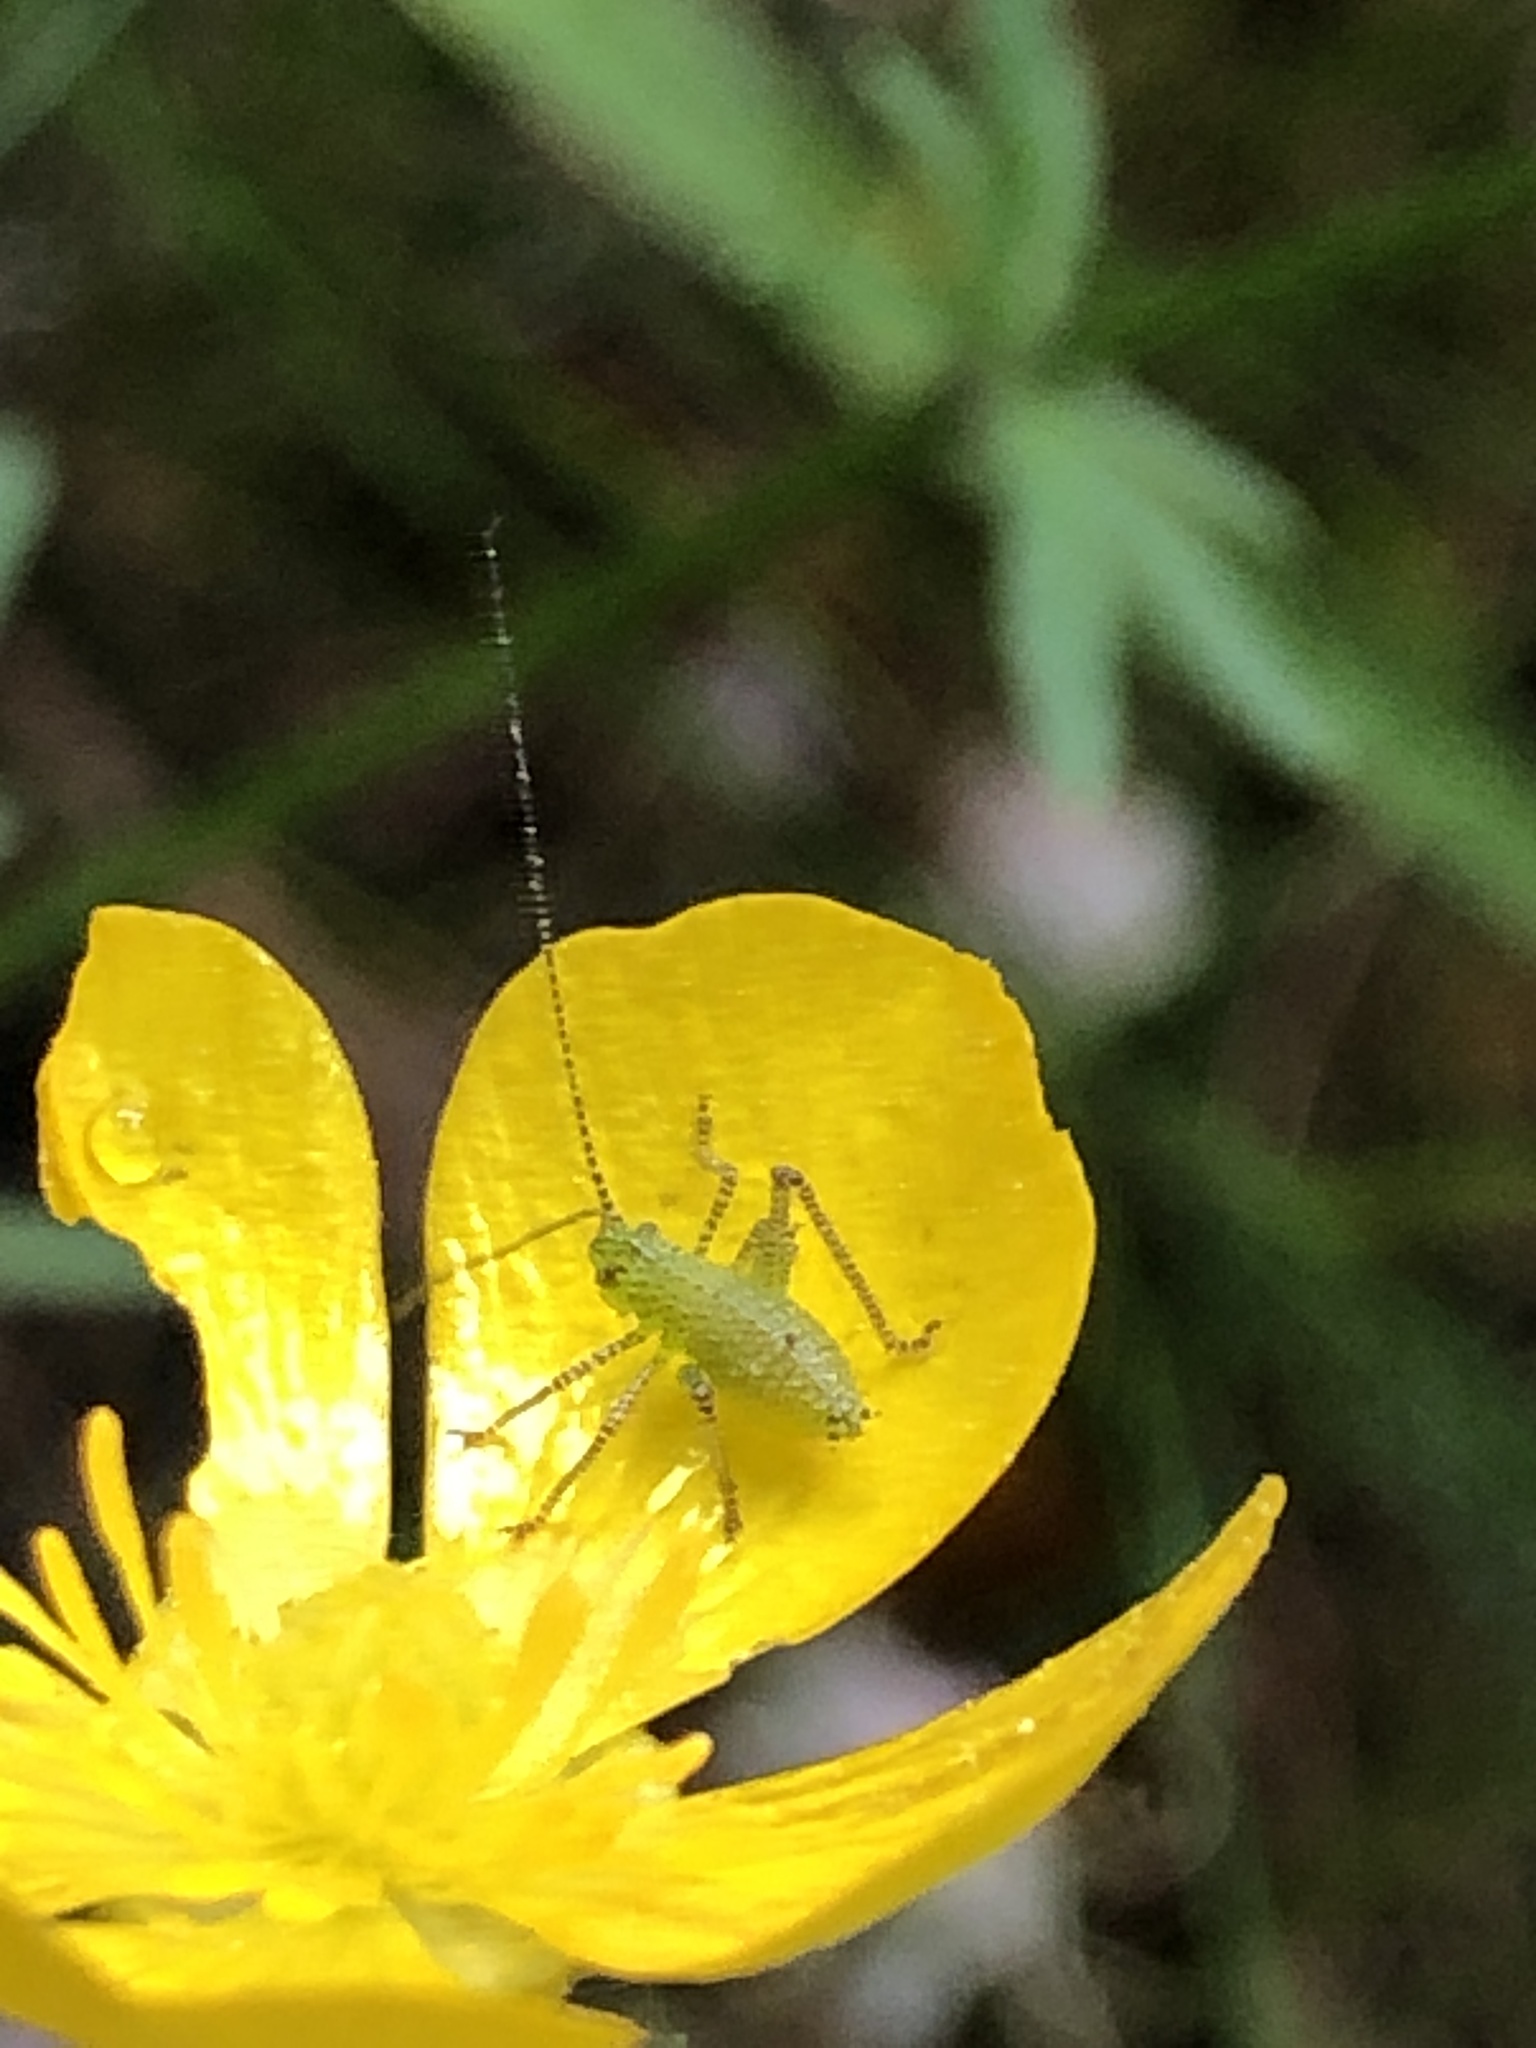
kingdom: Animalia
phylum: Arthropoda
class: Insecta
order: Orthoptera
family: Tettigoniidae
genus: Leptophyes
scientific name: Leptophyes punctatissima
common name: Speckled bush-cricket
